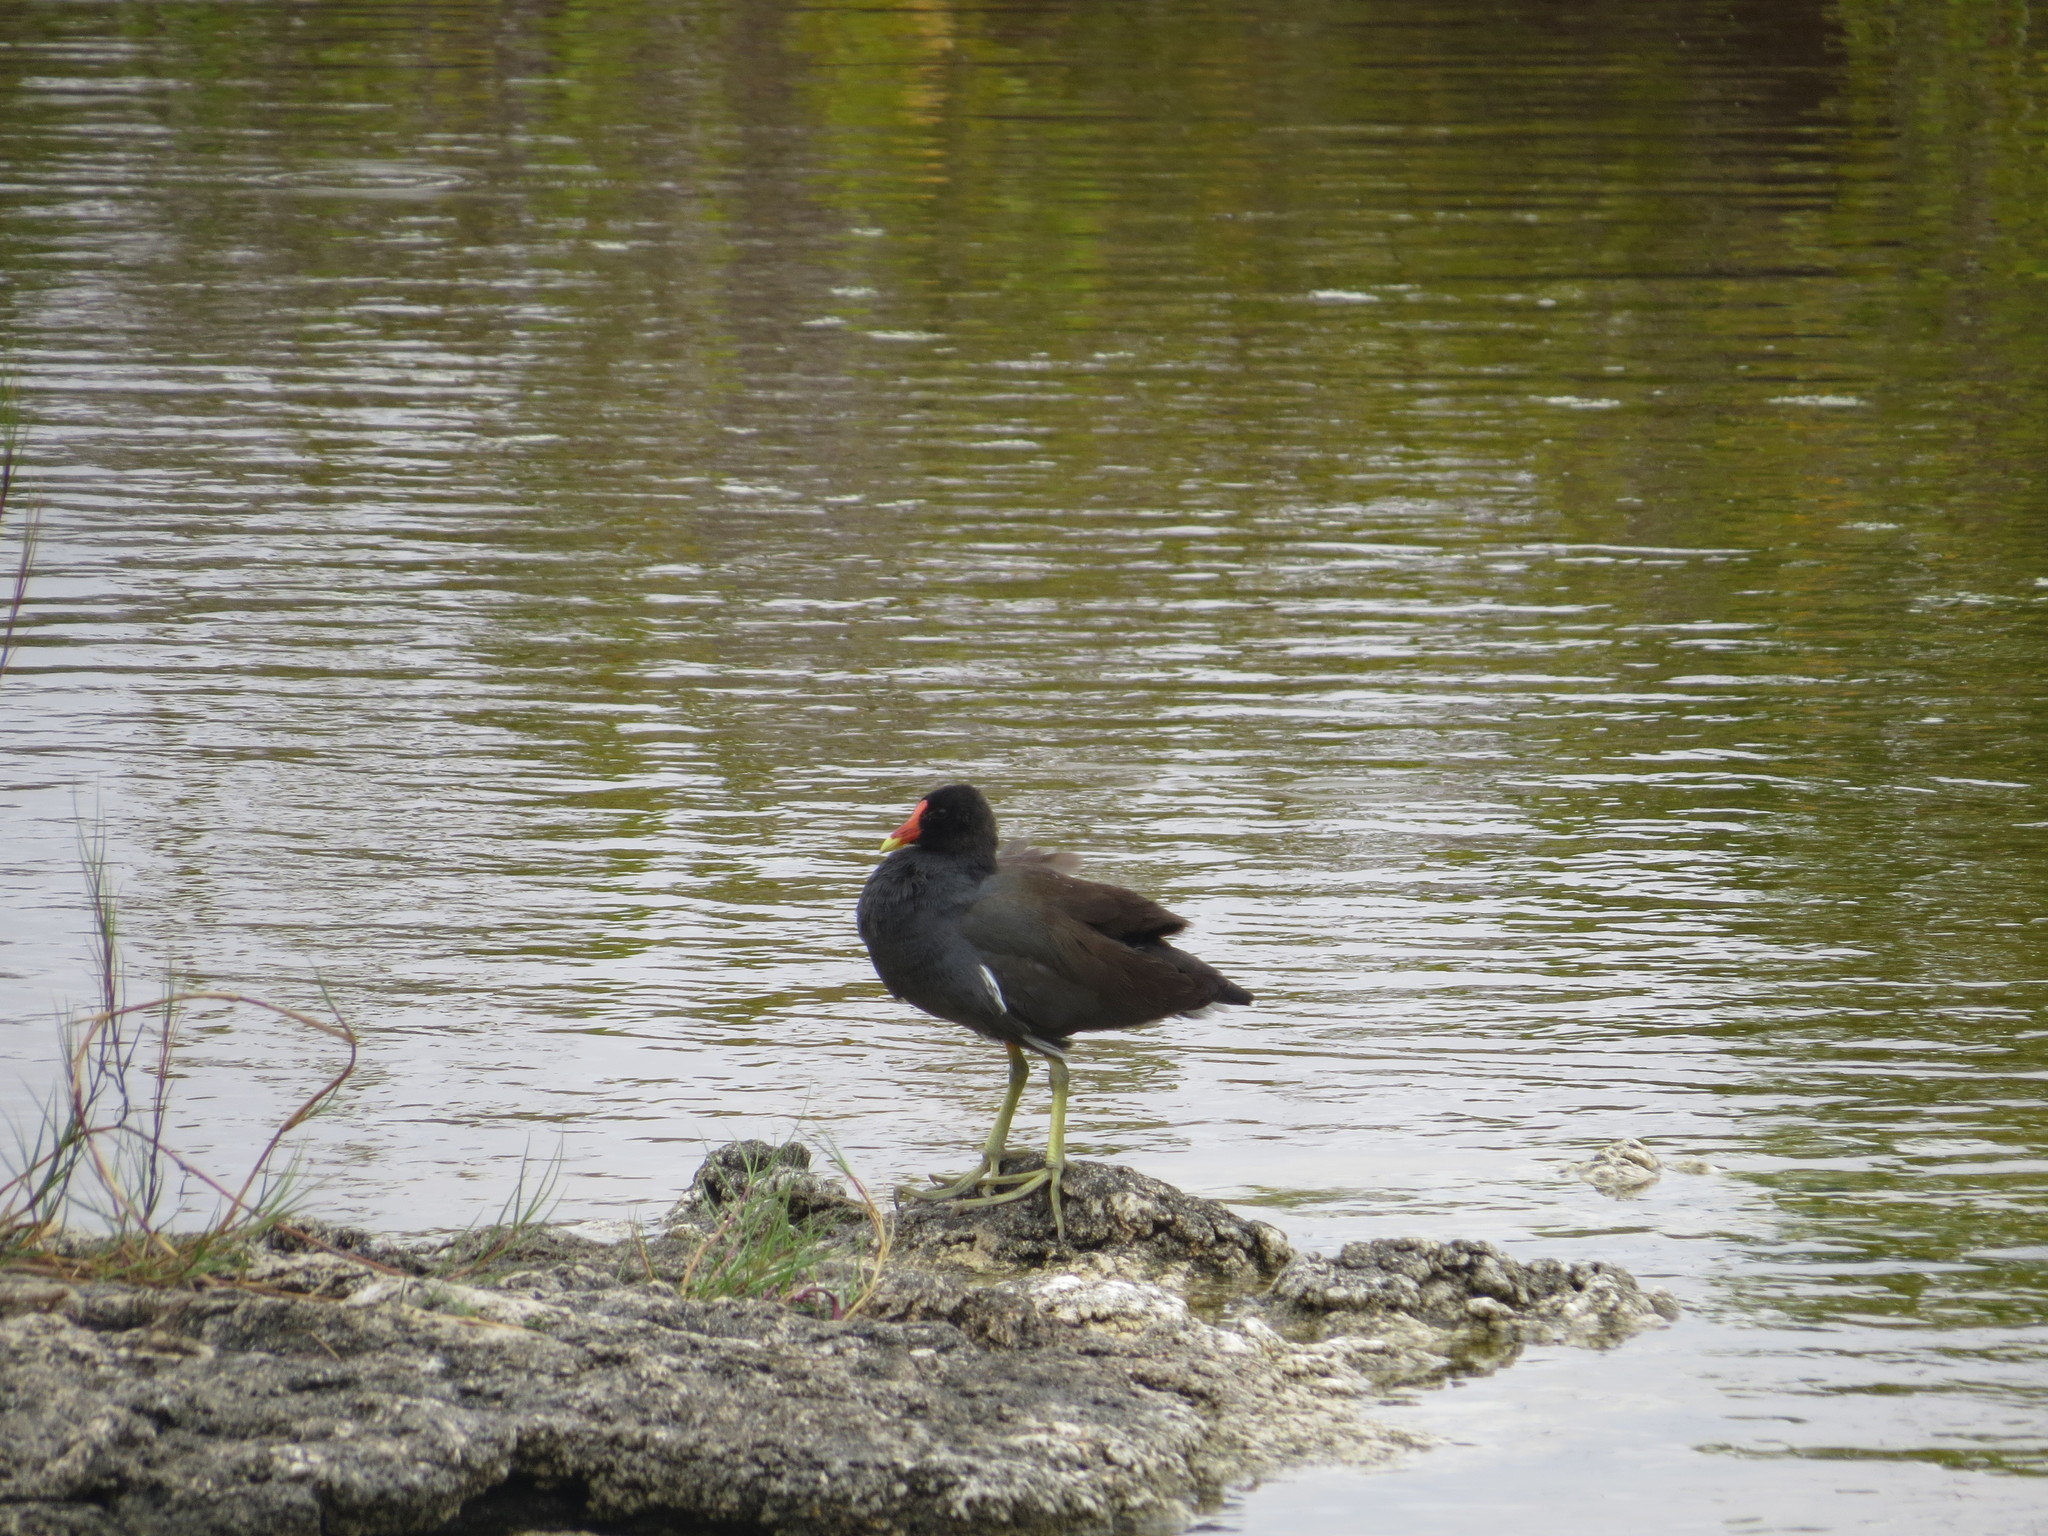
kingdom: Animalia
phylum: Chordata
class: Aves
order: Gruiformes
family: Rallidae
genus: Gallinula
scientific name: Gallinula chloropus
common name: Common moorhen
